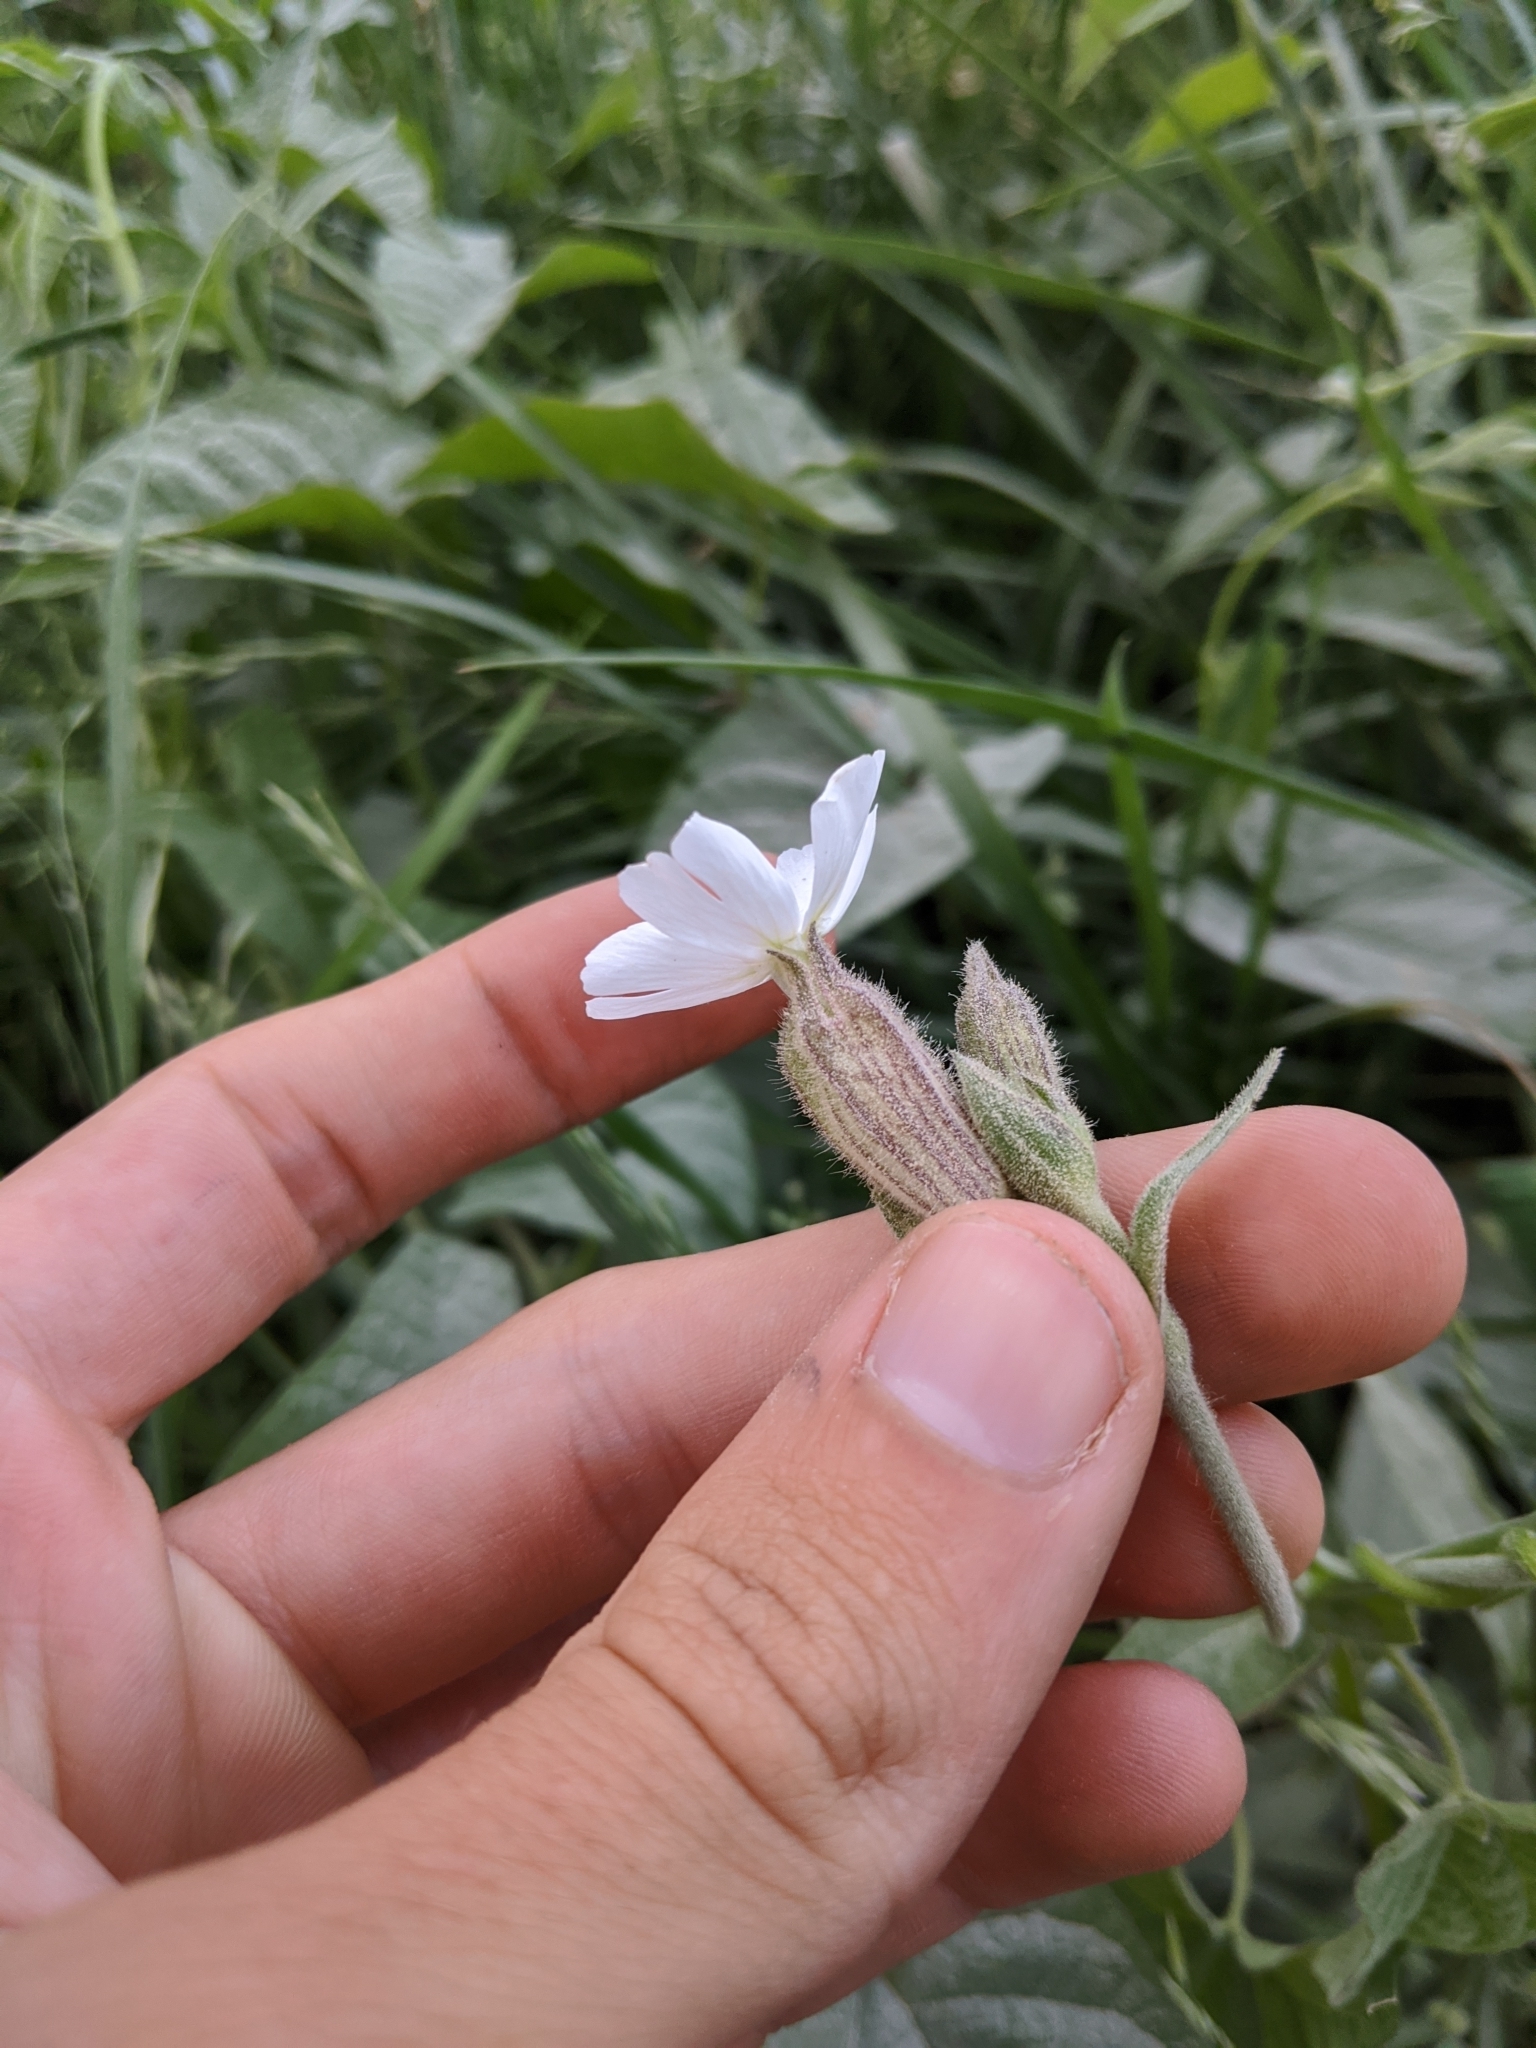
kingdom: Plantae
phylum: Tracheophyta
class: Magnoliopsida
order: Caryophyllales
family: Caryophyllaceae
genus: Silene
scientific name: Silene latifolia
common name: White campion
